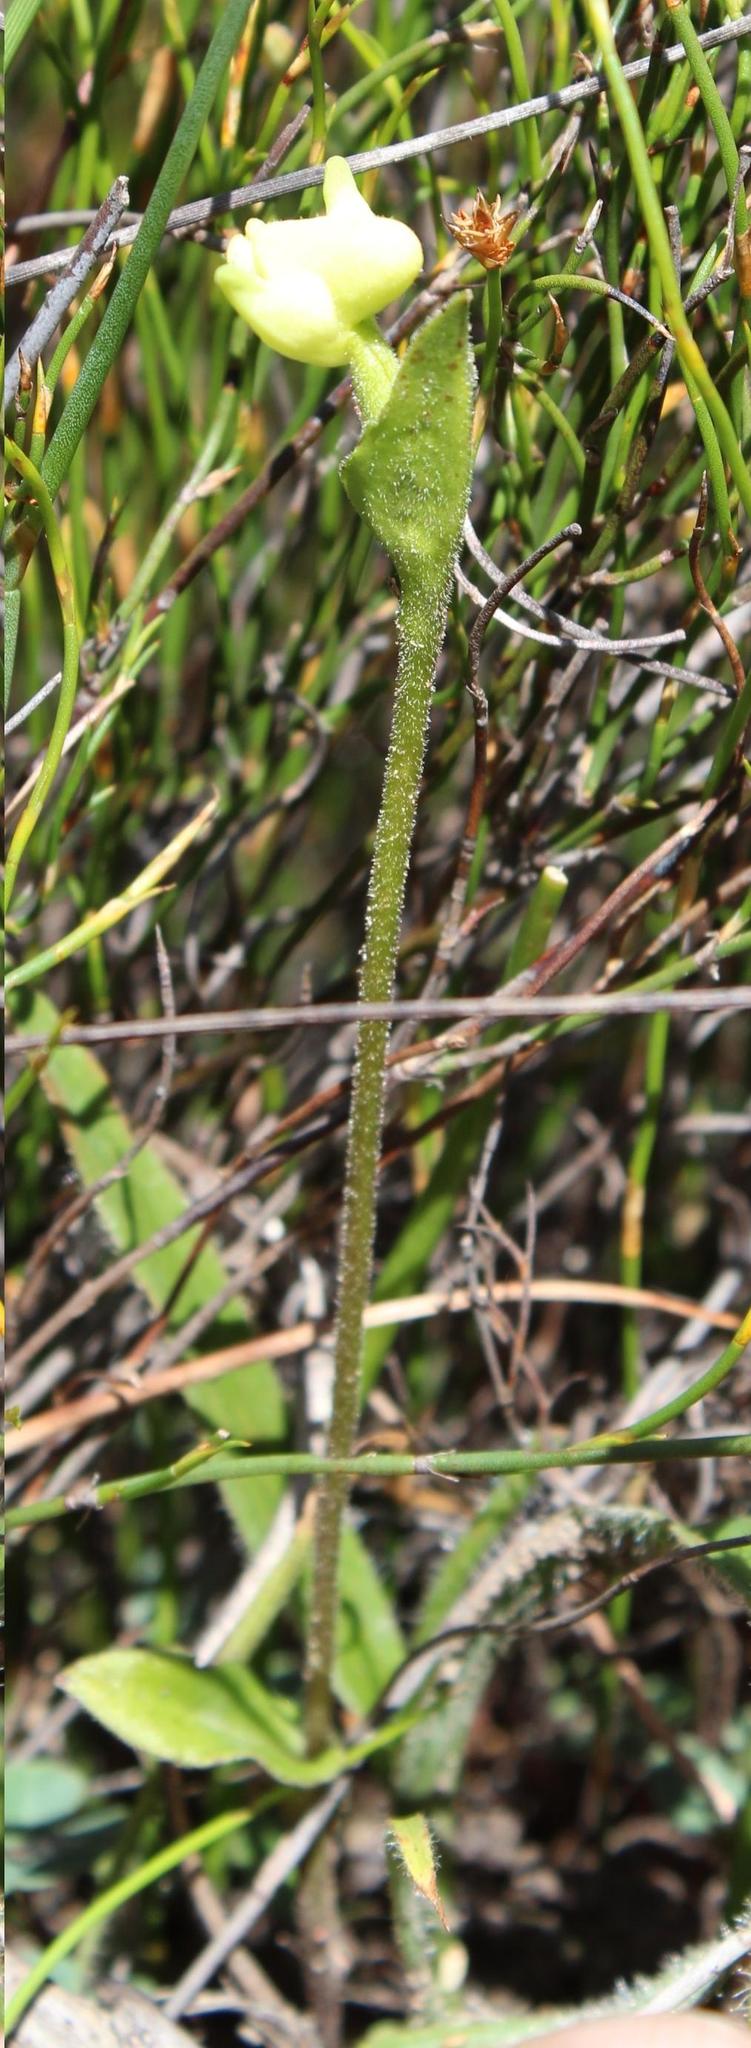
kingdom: Plantae
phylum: Tracheophyta
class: Liliopsida
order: Asparagales
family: Orchidaceae
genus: Disperis
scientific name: Disperis villosa
